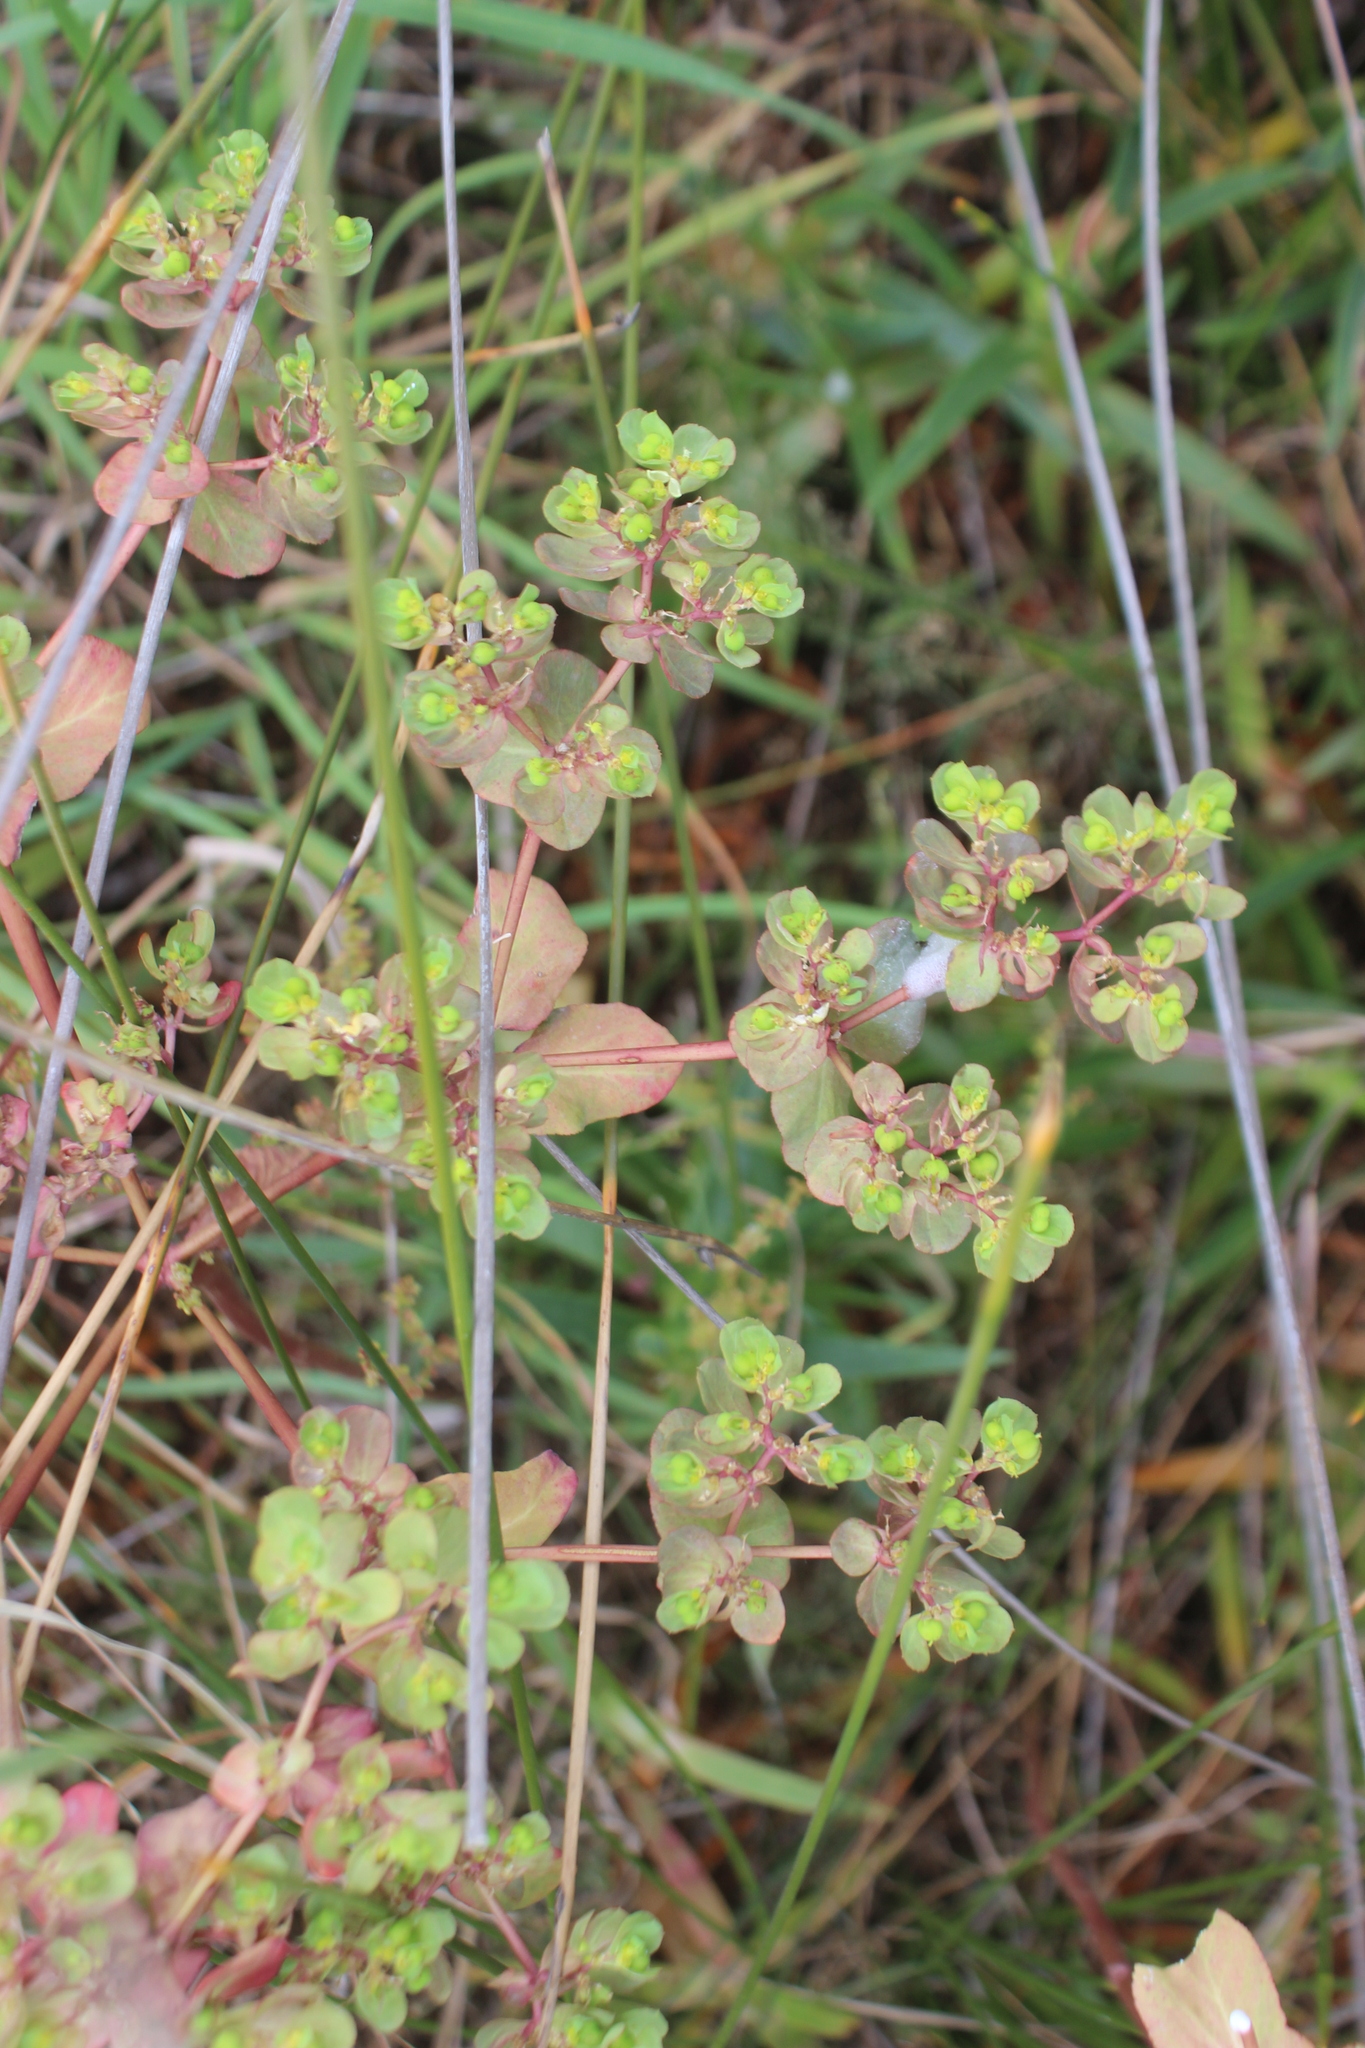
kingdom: Plantae
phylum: Tracheophyta
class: Magnoliopsida
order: Malpighiales
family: Euphorbiaceae
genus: Euphorbia
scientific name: Euphorbia helioscopia
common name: Sun spurge
